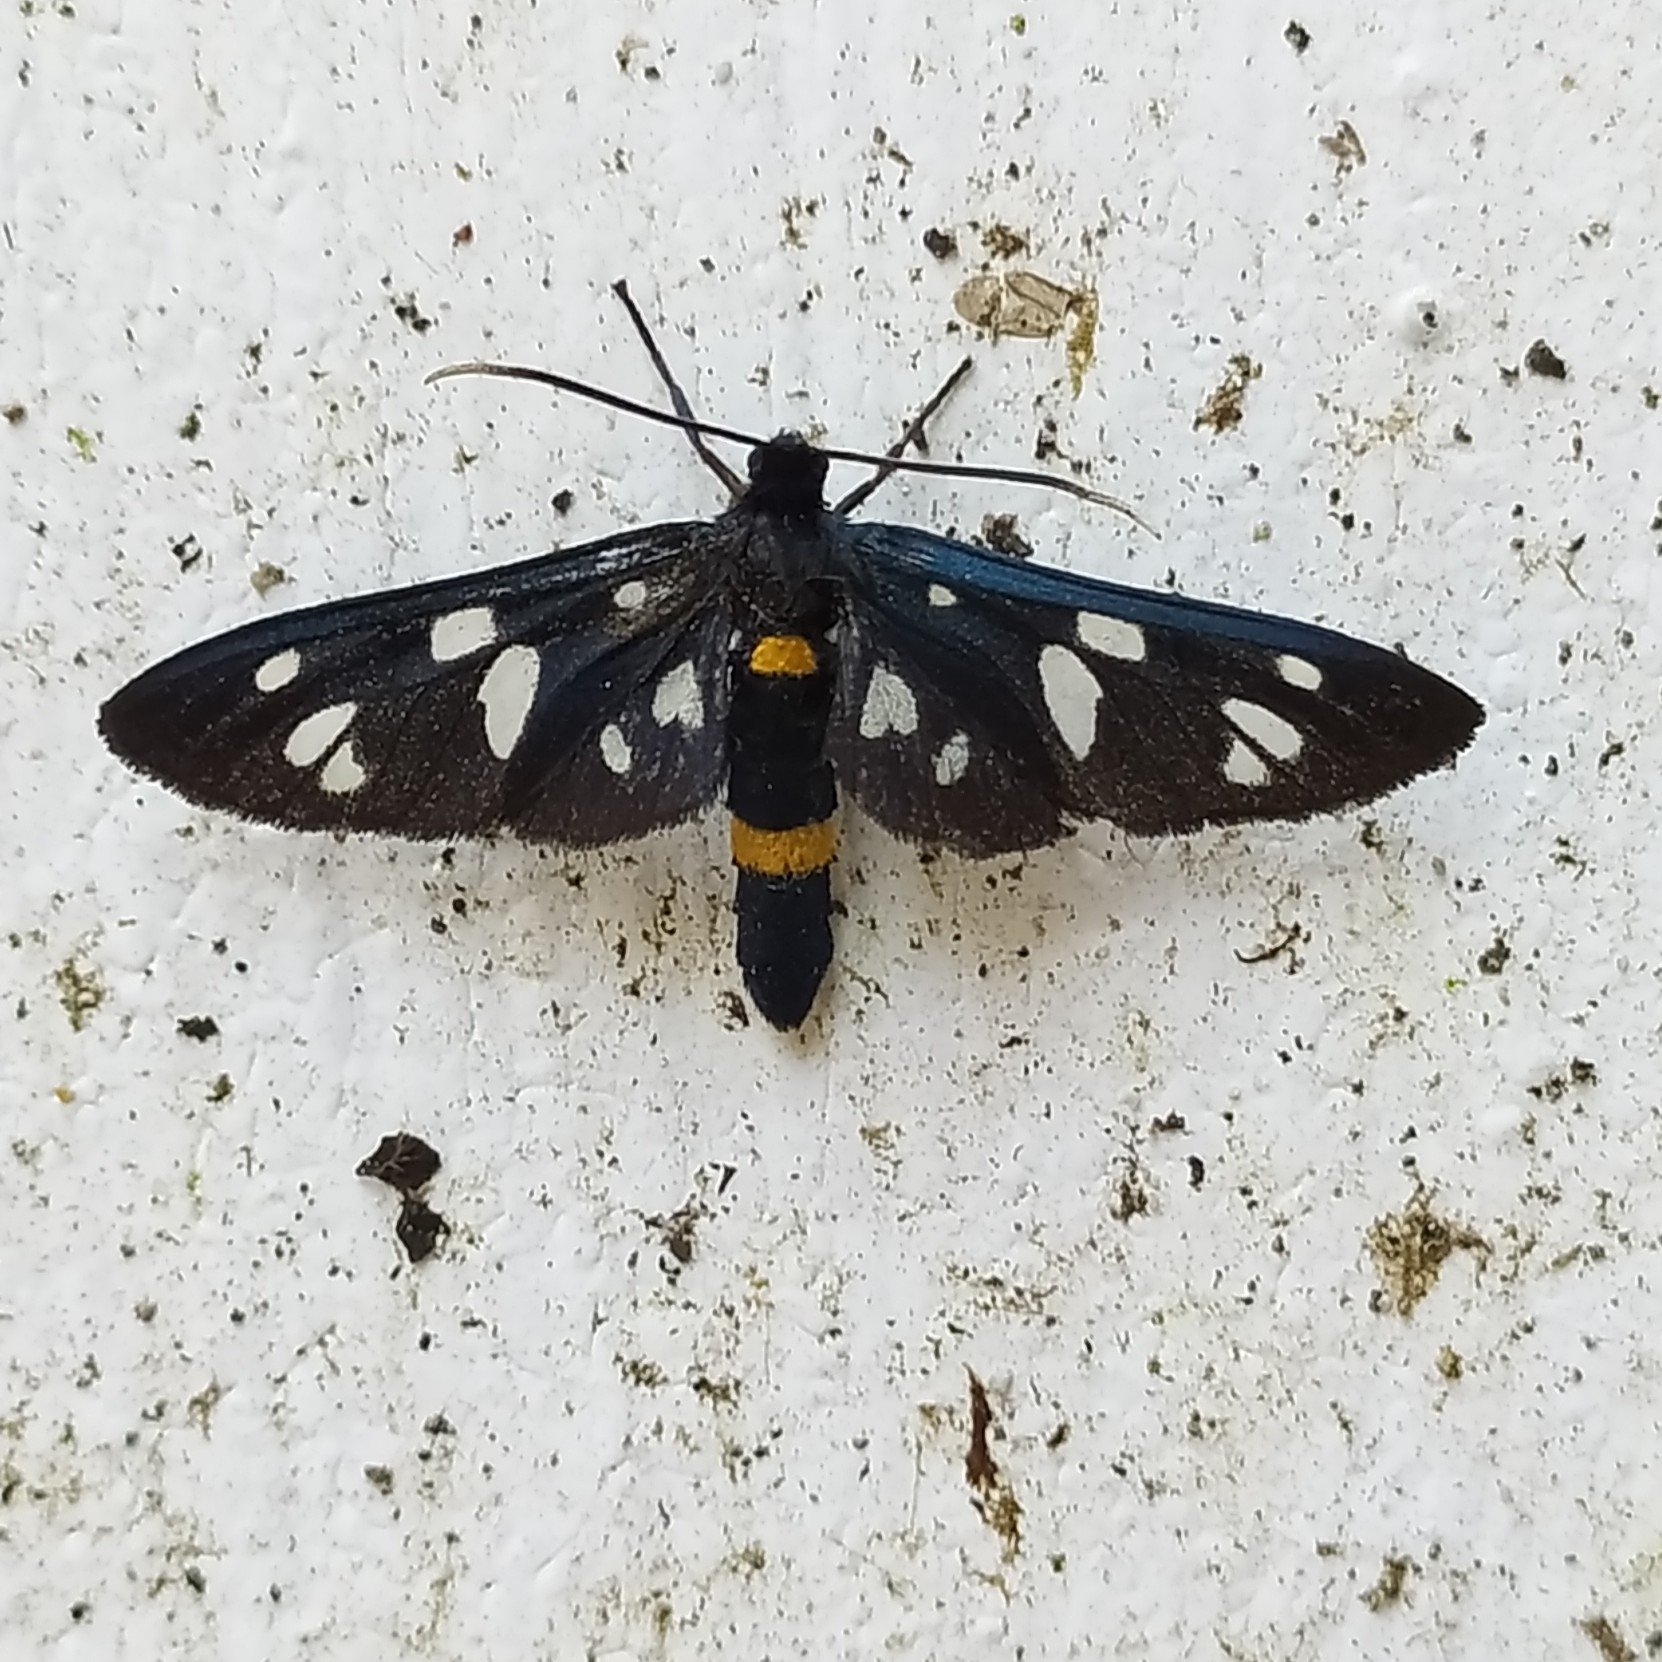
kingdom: Animalia
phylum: Arthropoda
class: Insecta
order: Lepidoptera
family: Erebidae
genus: Amata
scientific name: Amata nigricornis
